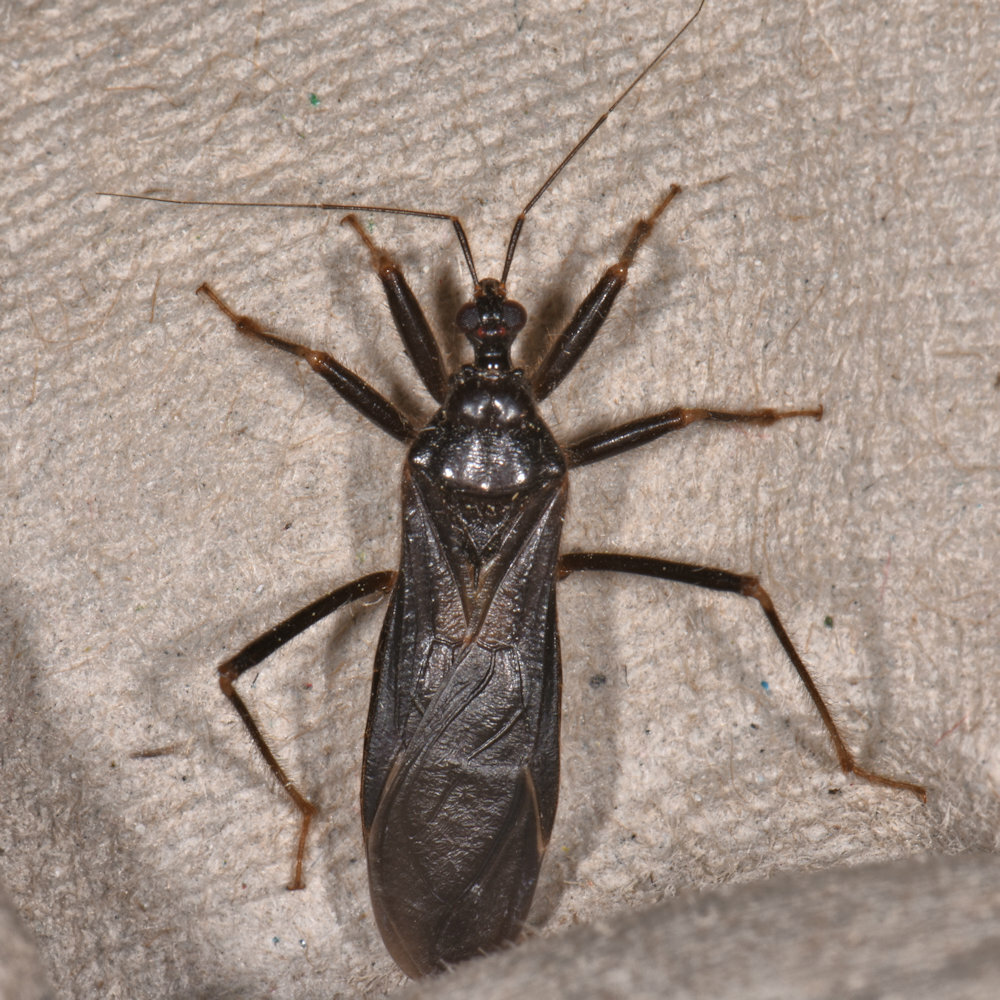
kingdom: Animalia
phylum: Arthropoda
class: Insecta
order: Hemiptera
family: Reduviidae
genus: Reduvius
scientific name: Reduvius personatus
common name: Masked hunter
